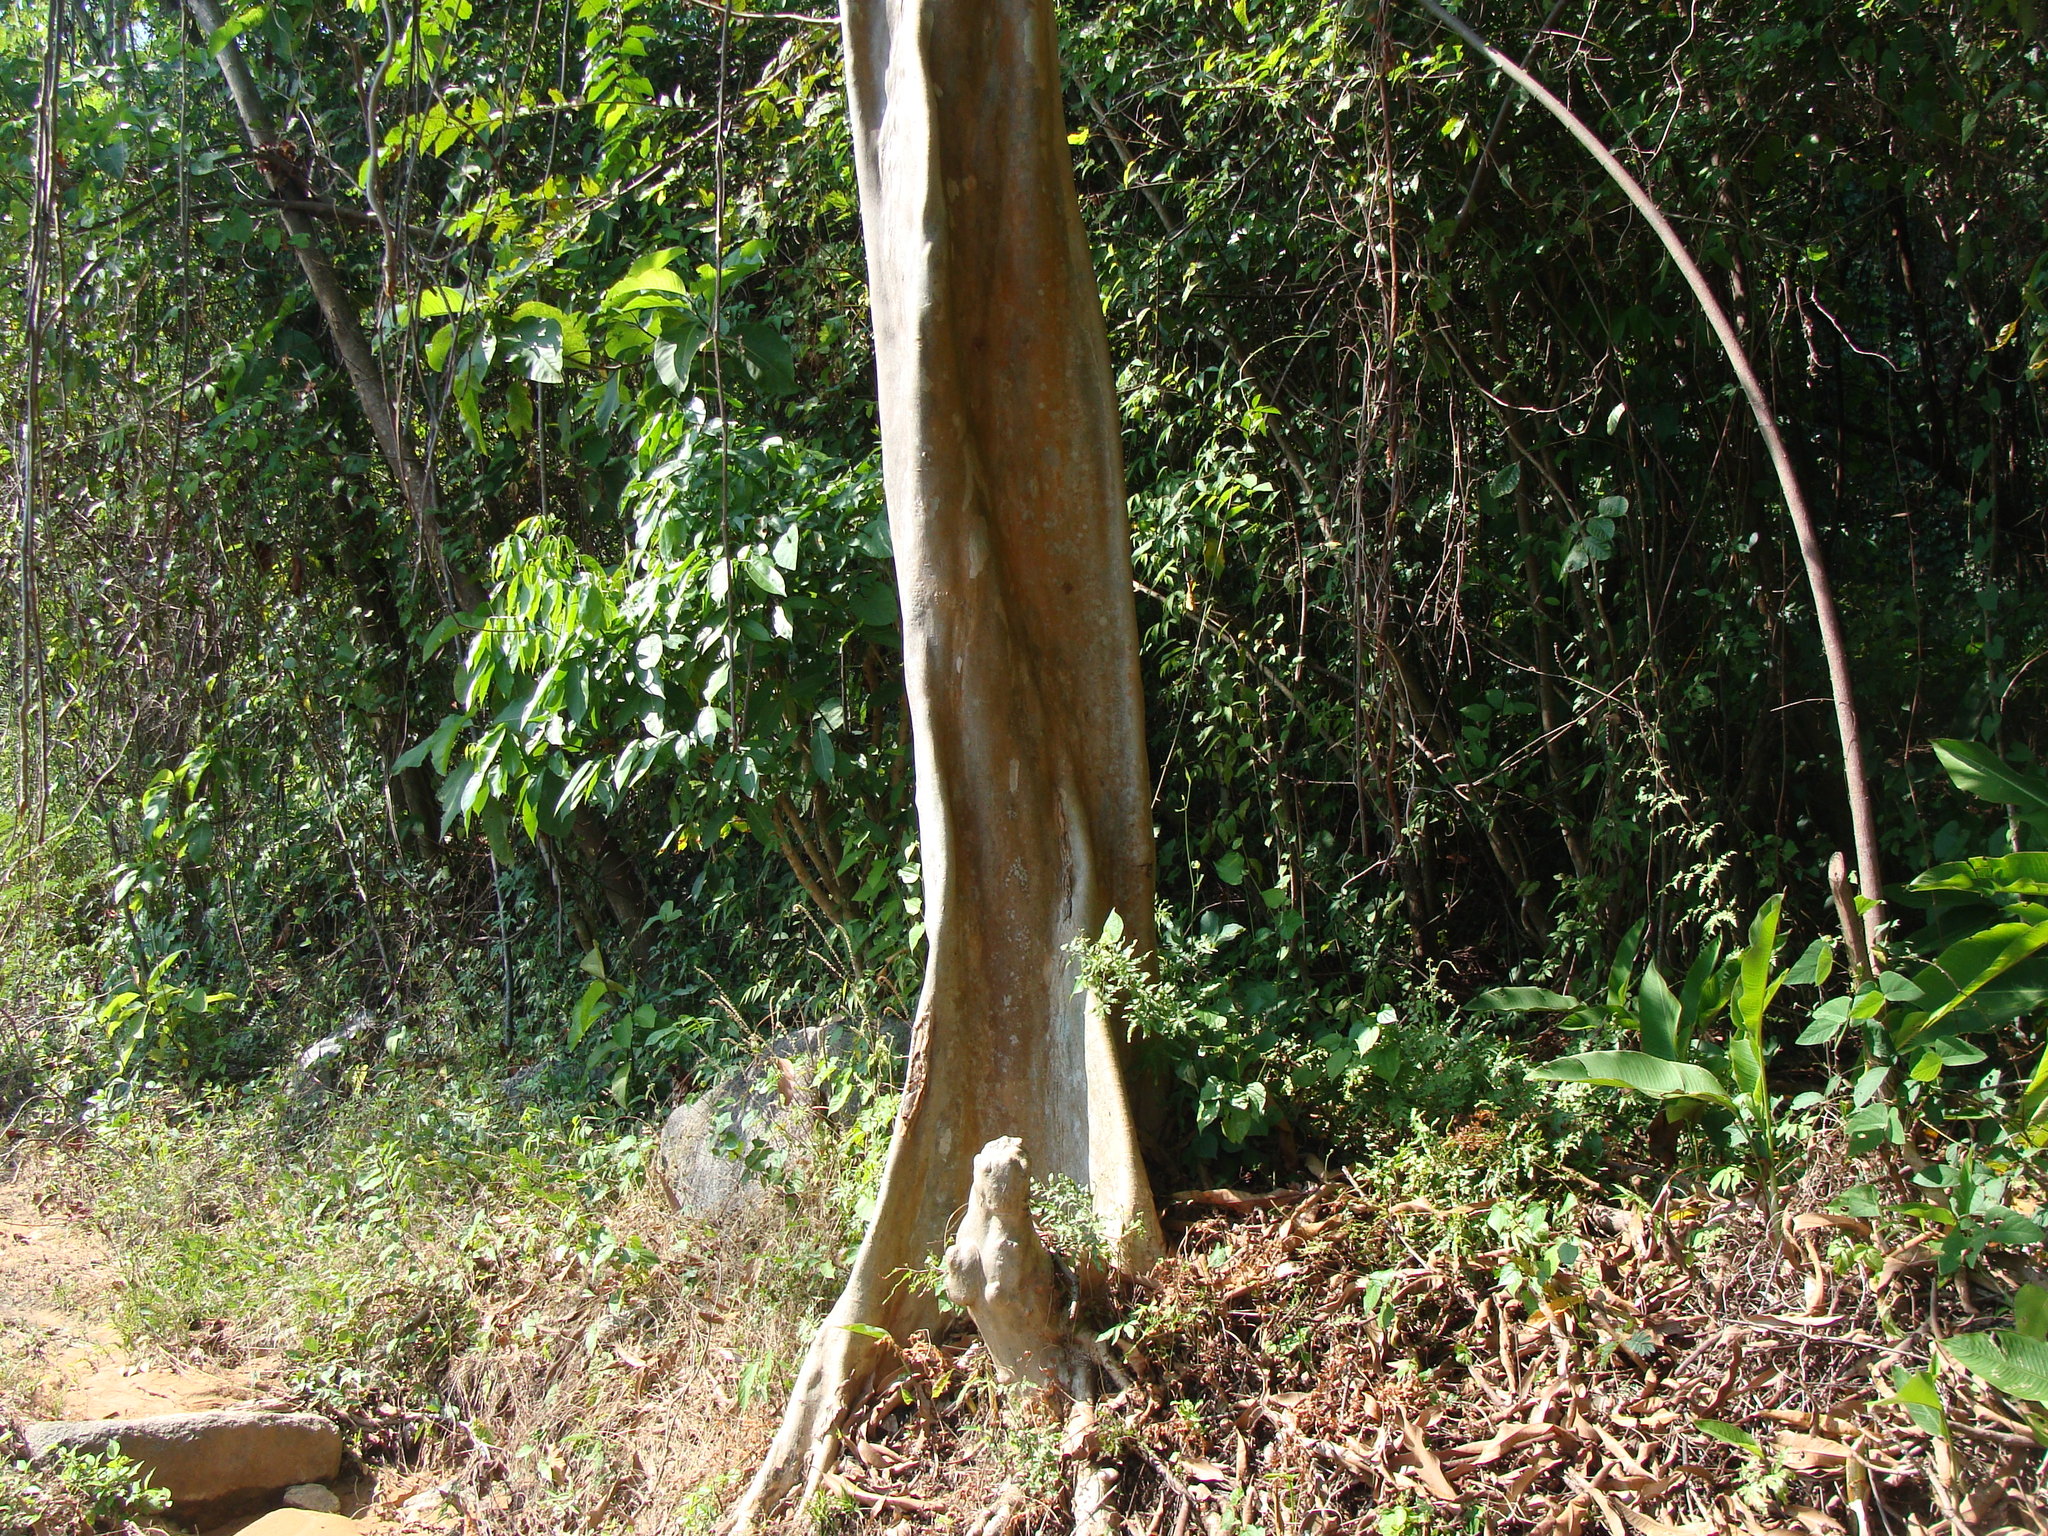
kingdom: Plantae
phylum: Tracheophyta
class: Magnoliopsida
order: Myrtales
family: Combretaceae
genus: Terminalia
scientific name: Terminalia oblonga
